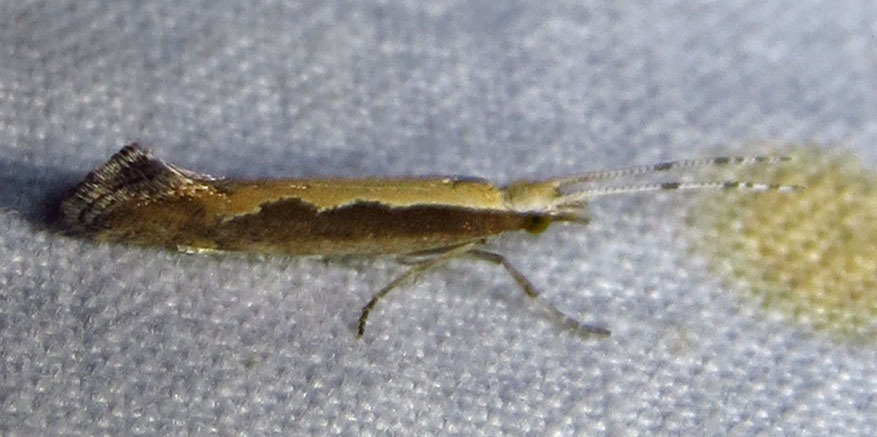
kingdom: Animalia
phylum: Arthropoda
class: Insecta
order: Lepidoptera
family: Plutellidae
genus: Plutella
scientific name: Plutella xylostella
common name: Diamond-back moth
